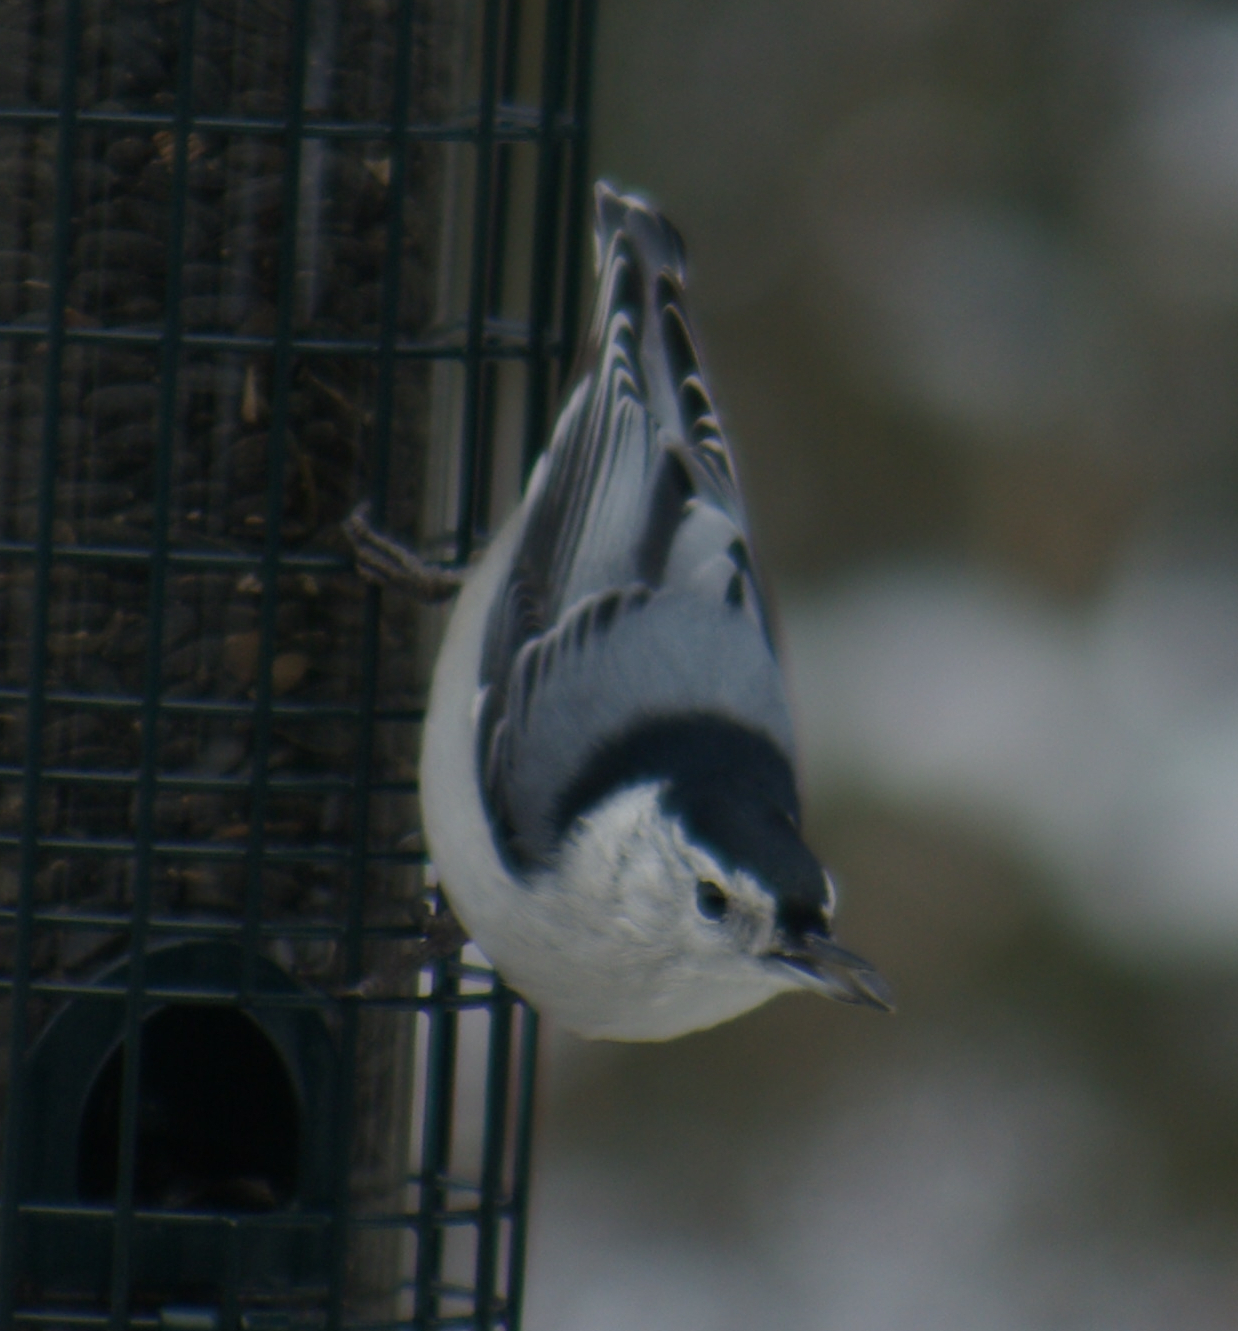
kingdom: Animalia
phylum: Chordata
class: Aves
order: Passeriformes
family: Sittidae
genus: Sitta
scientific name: Sitta carolinensis
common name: White-breasted nuthatch
